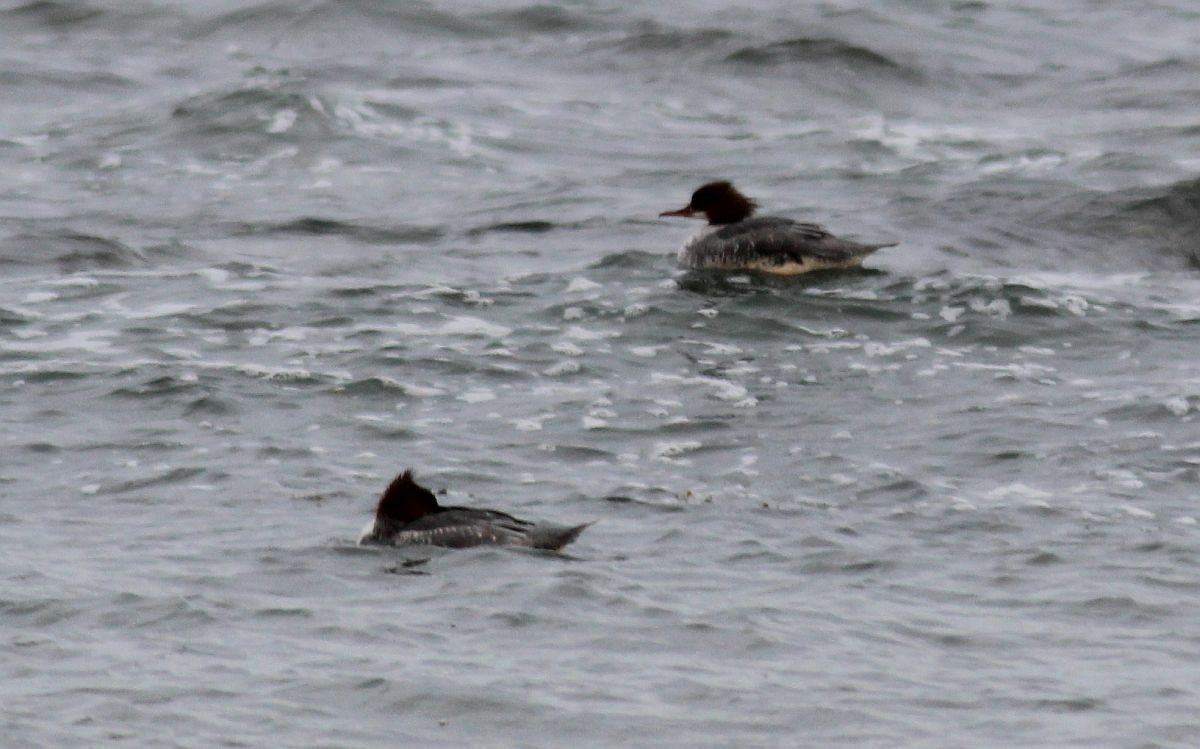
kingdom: Animalia
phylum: Chordata
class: Aves
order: Anseriformes
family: Anatidae
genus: Mergus
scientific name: Mergus merganser
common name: Common merganser
